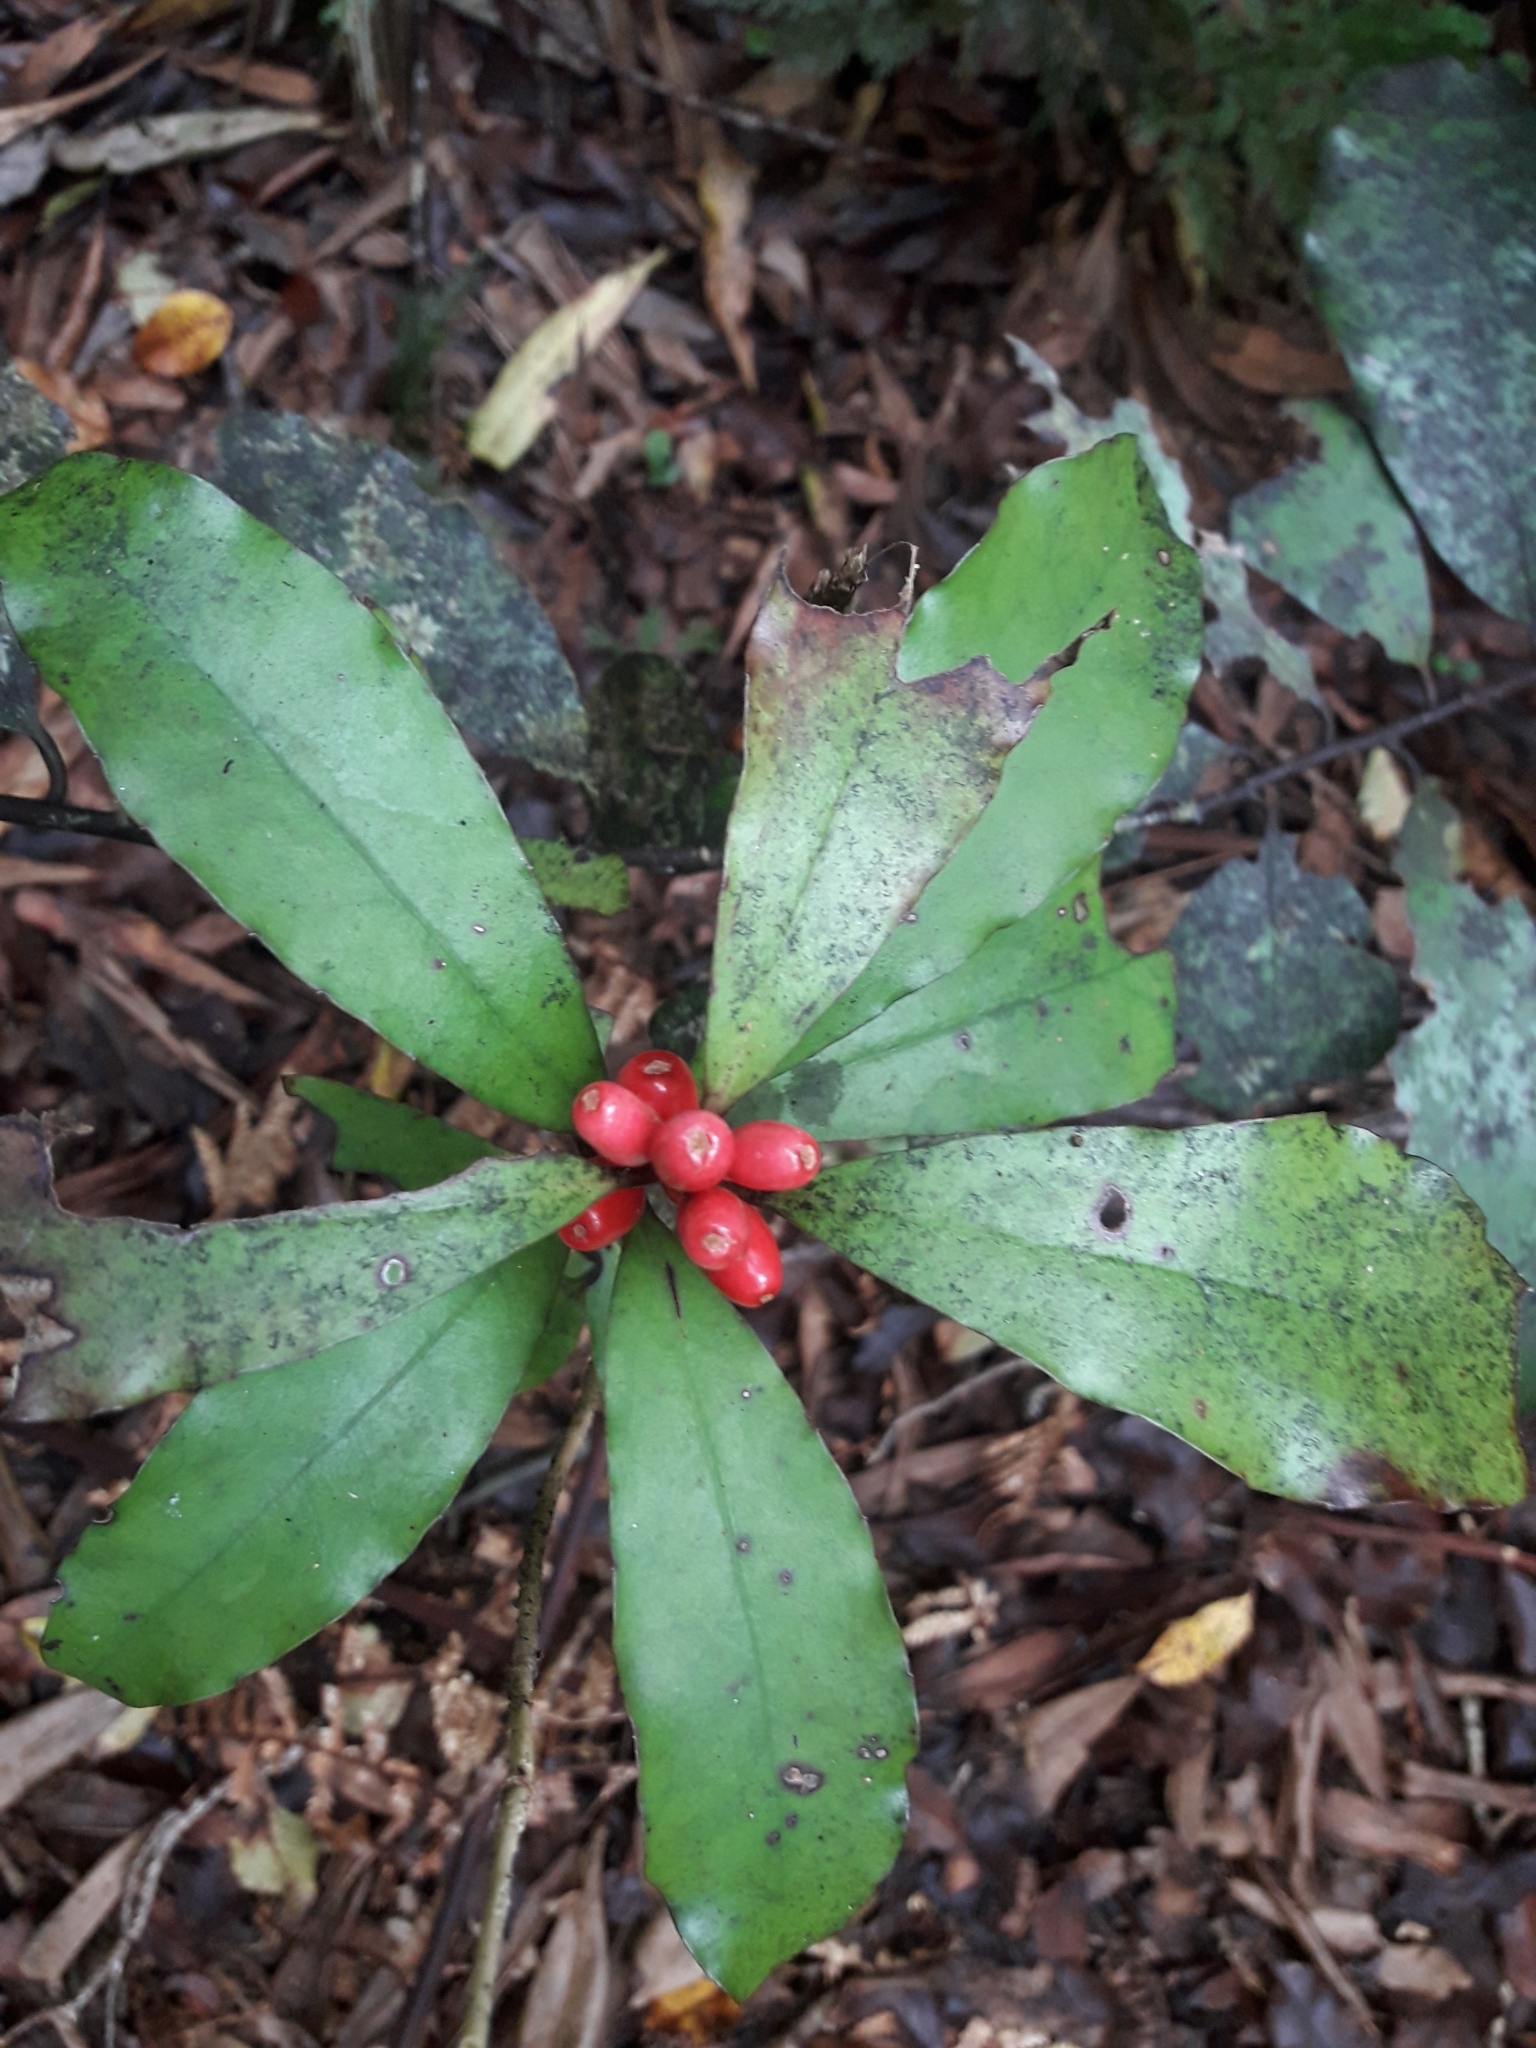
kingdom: Plantae
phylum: Tracheophyta
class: Magnoliopsida
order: Asterales
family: Alseuosmiaceae
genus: Alseuosmia
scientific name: Alseuosmia pusilla
